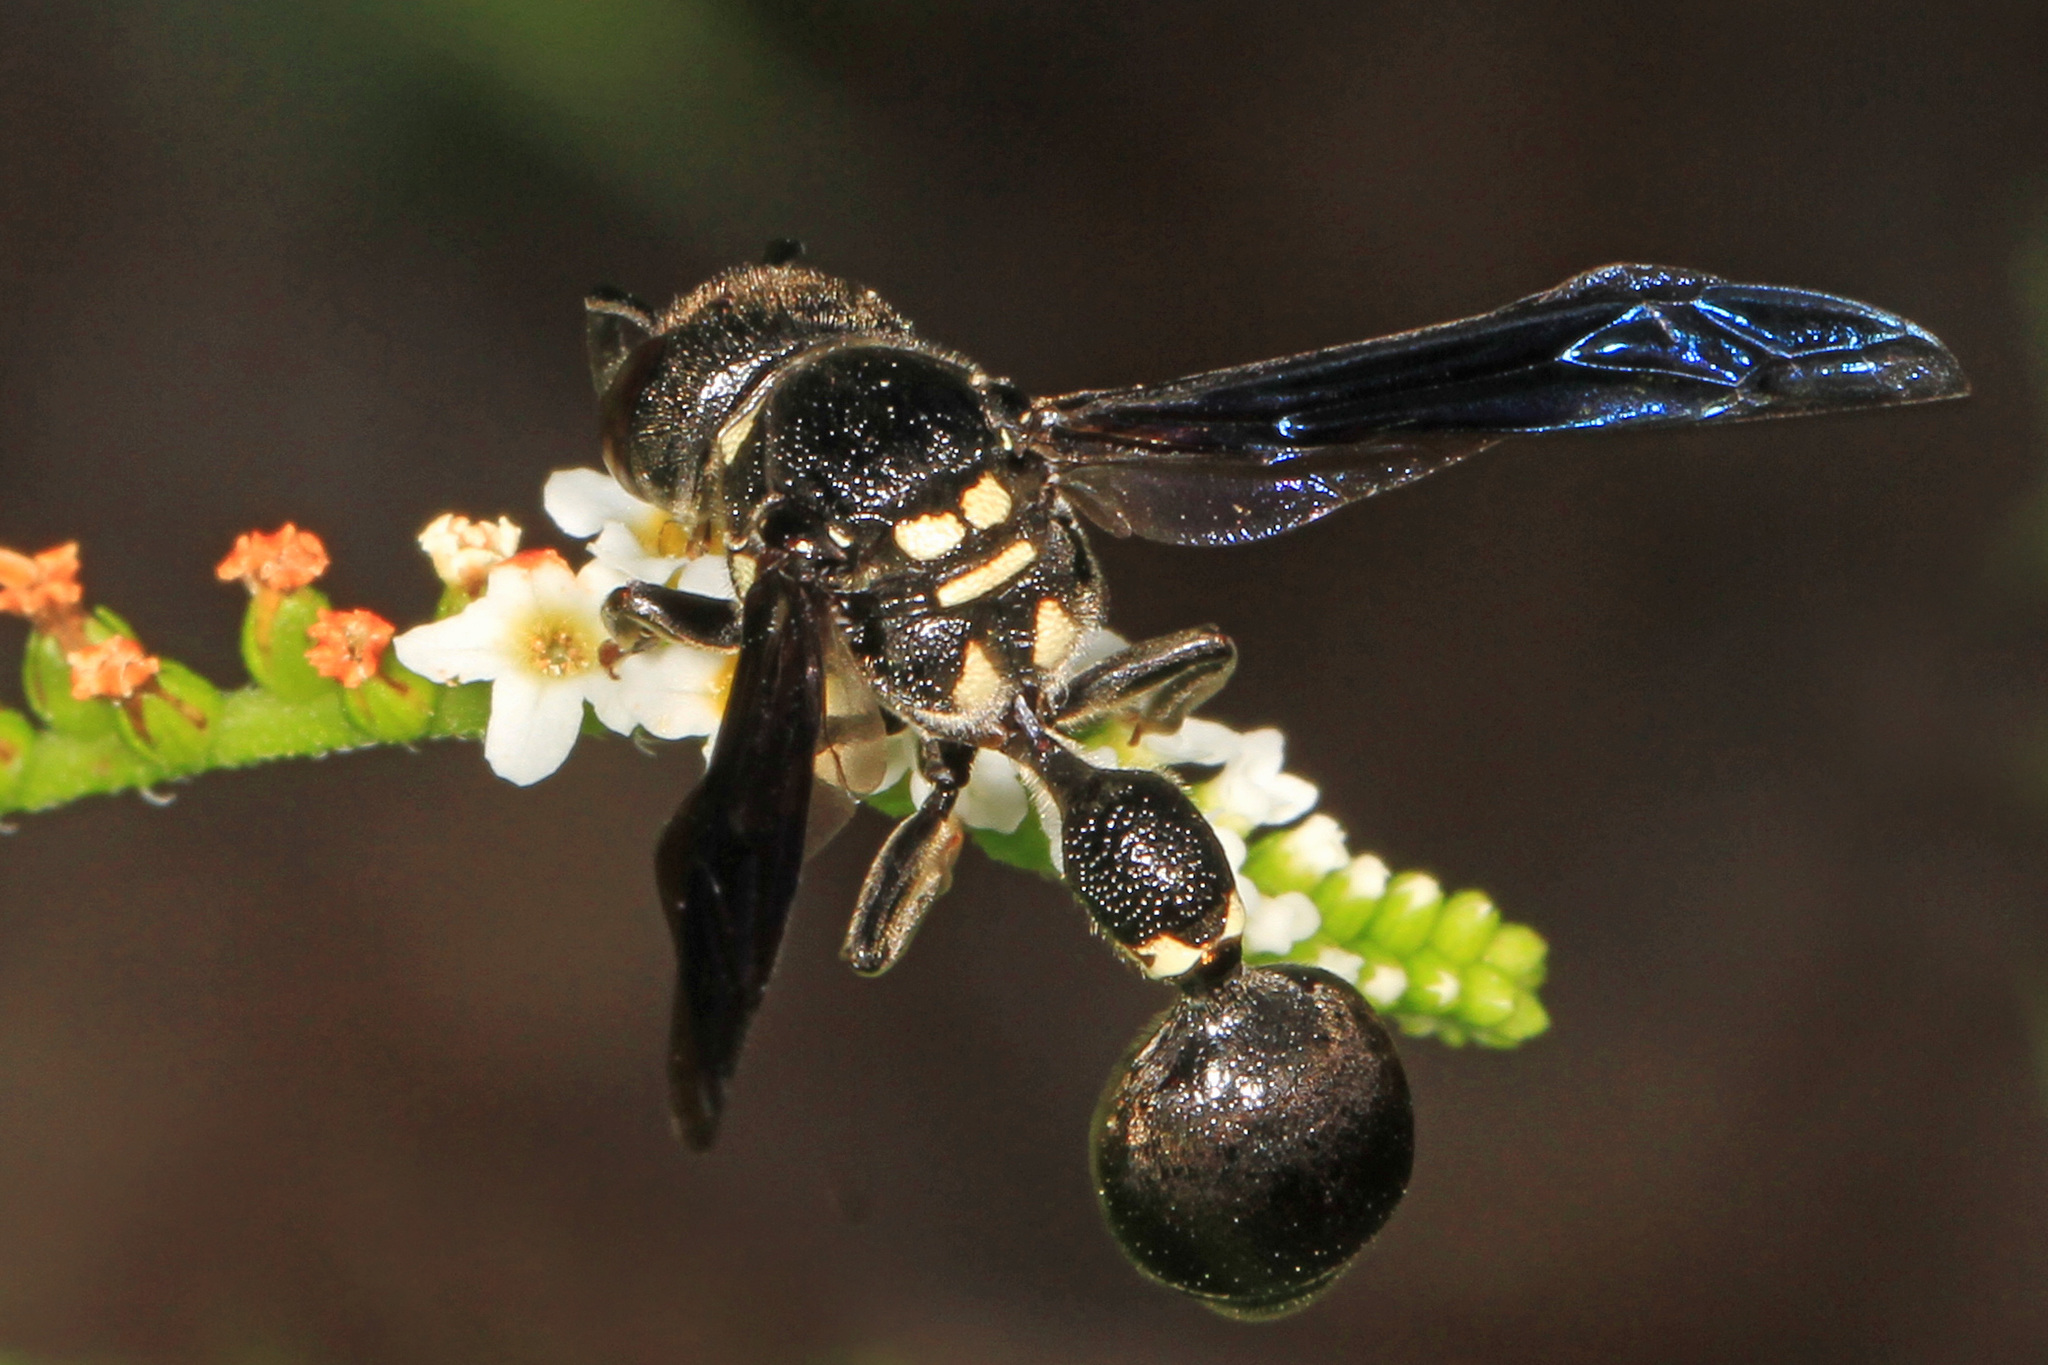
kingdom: Animalia
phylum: Arthropoda
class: Insecta
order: Hymenoptera
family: Eumenidae
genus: Zethus
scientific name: Zethus spinipes
